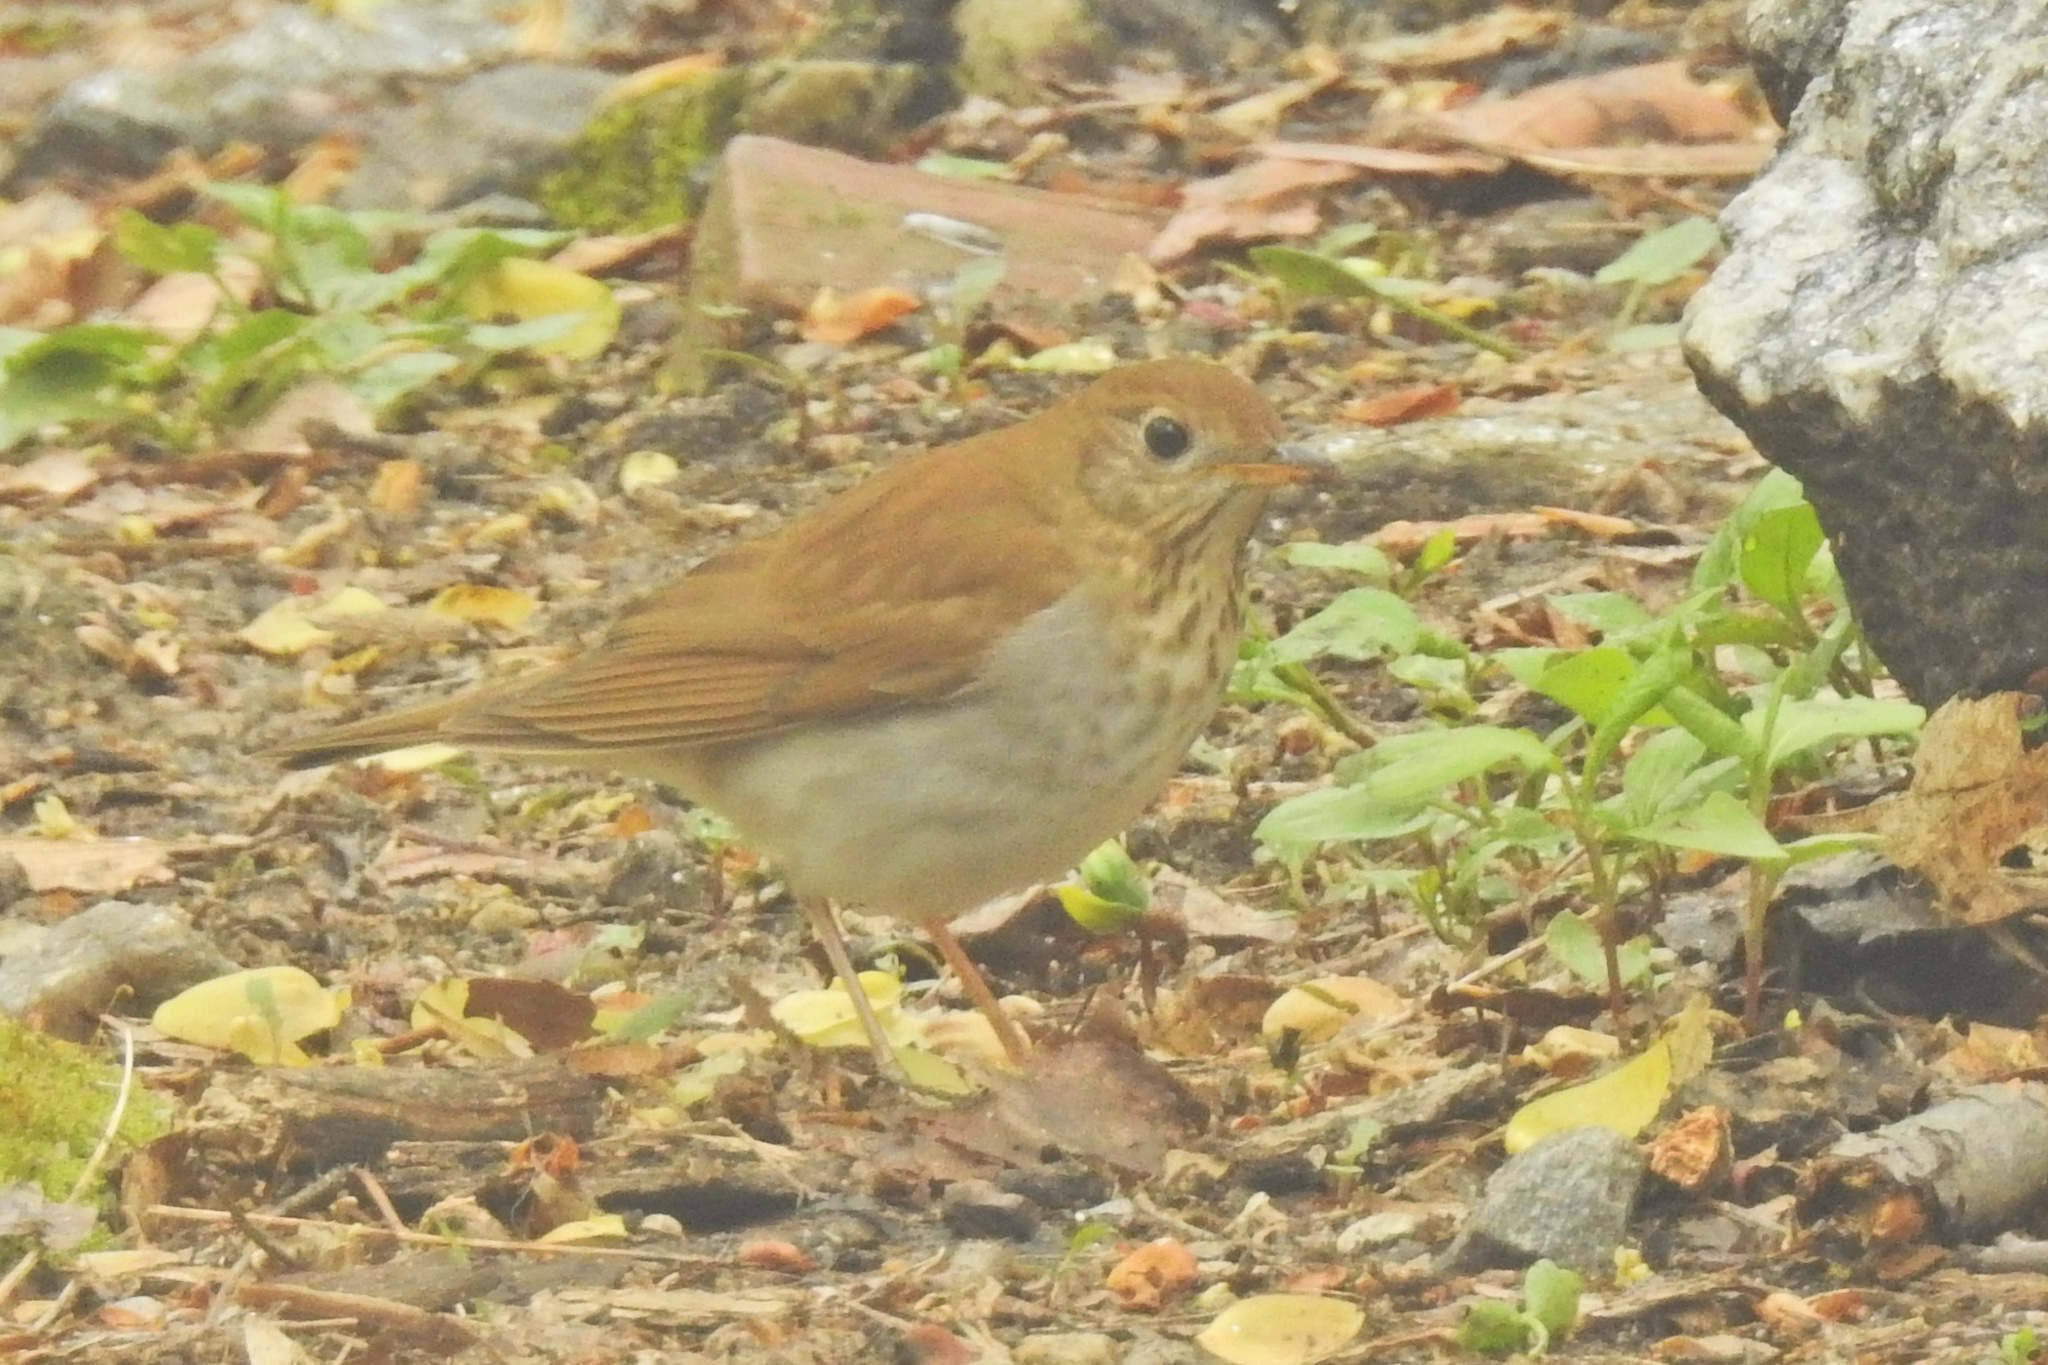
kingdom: Animalia
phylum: Chordata
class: Aves
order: Passeriformes
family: Turdidae
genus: Catharus
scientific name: Catharus fuscescens
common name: Veery
